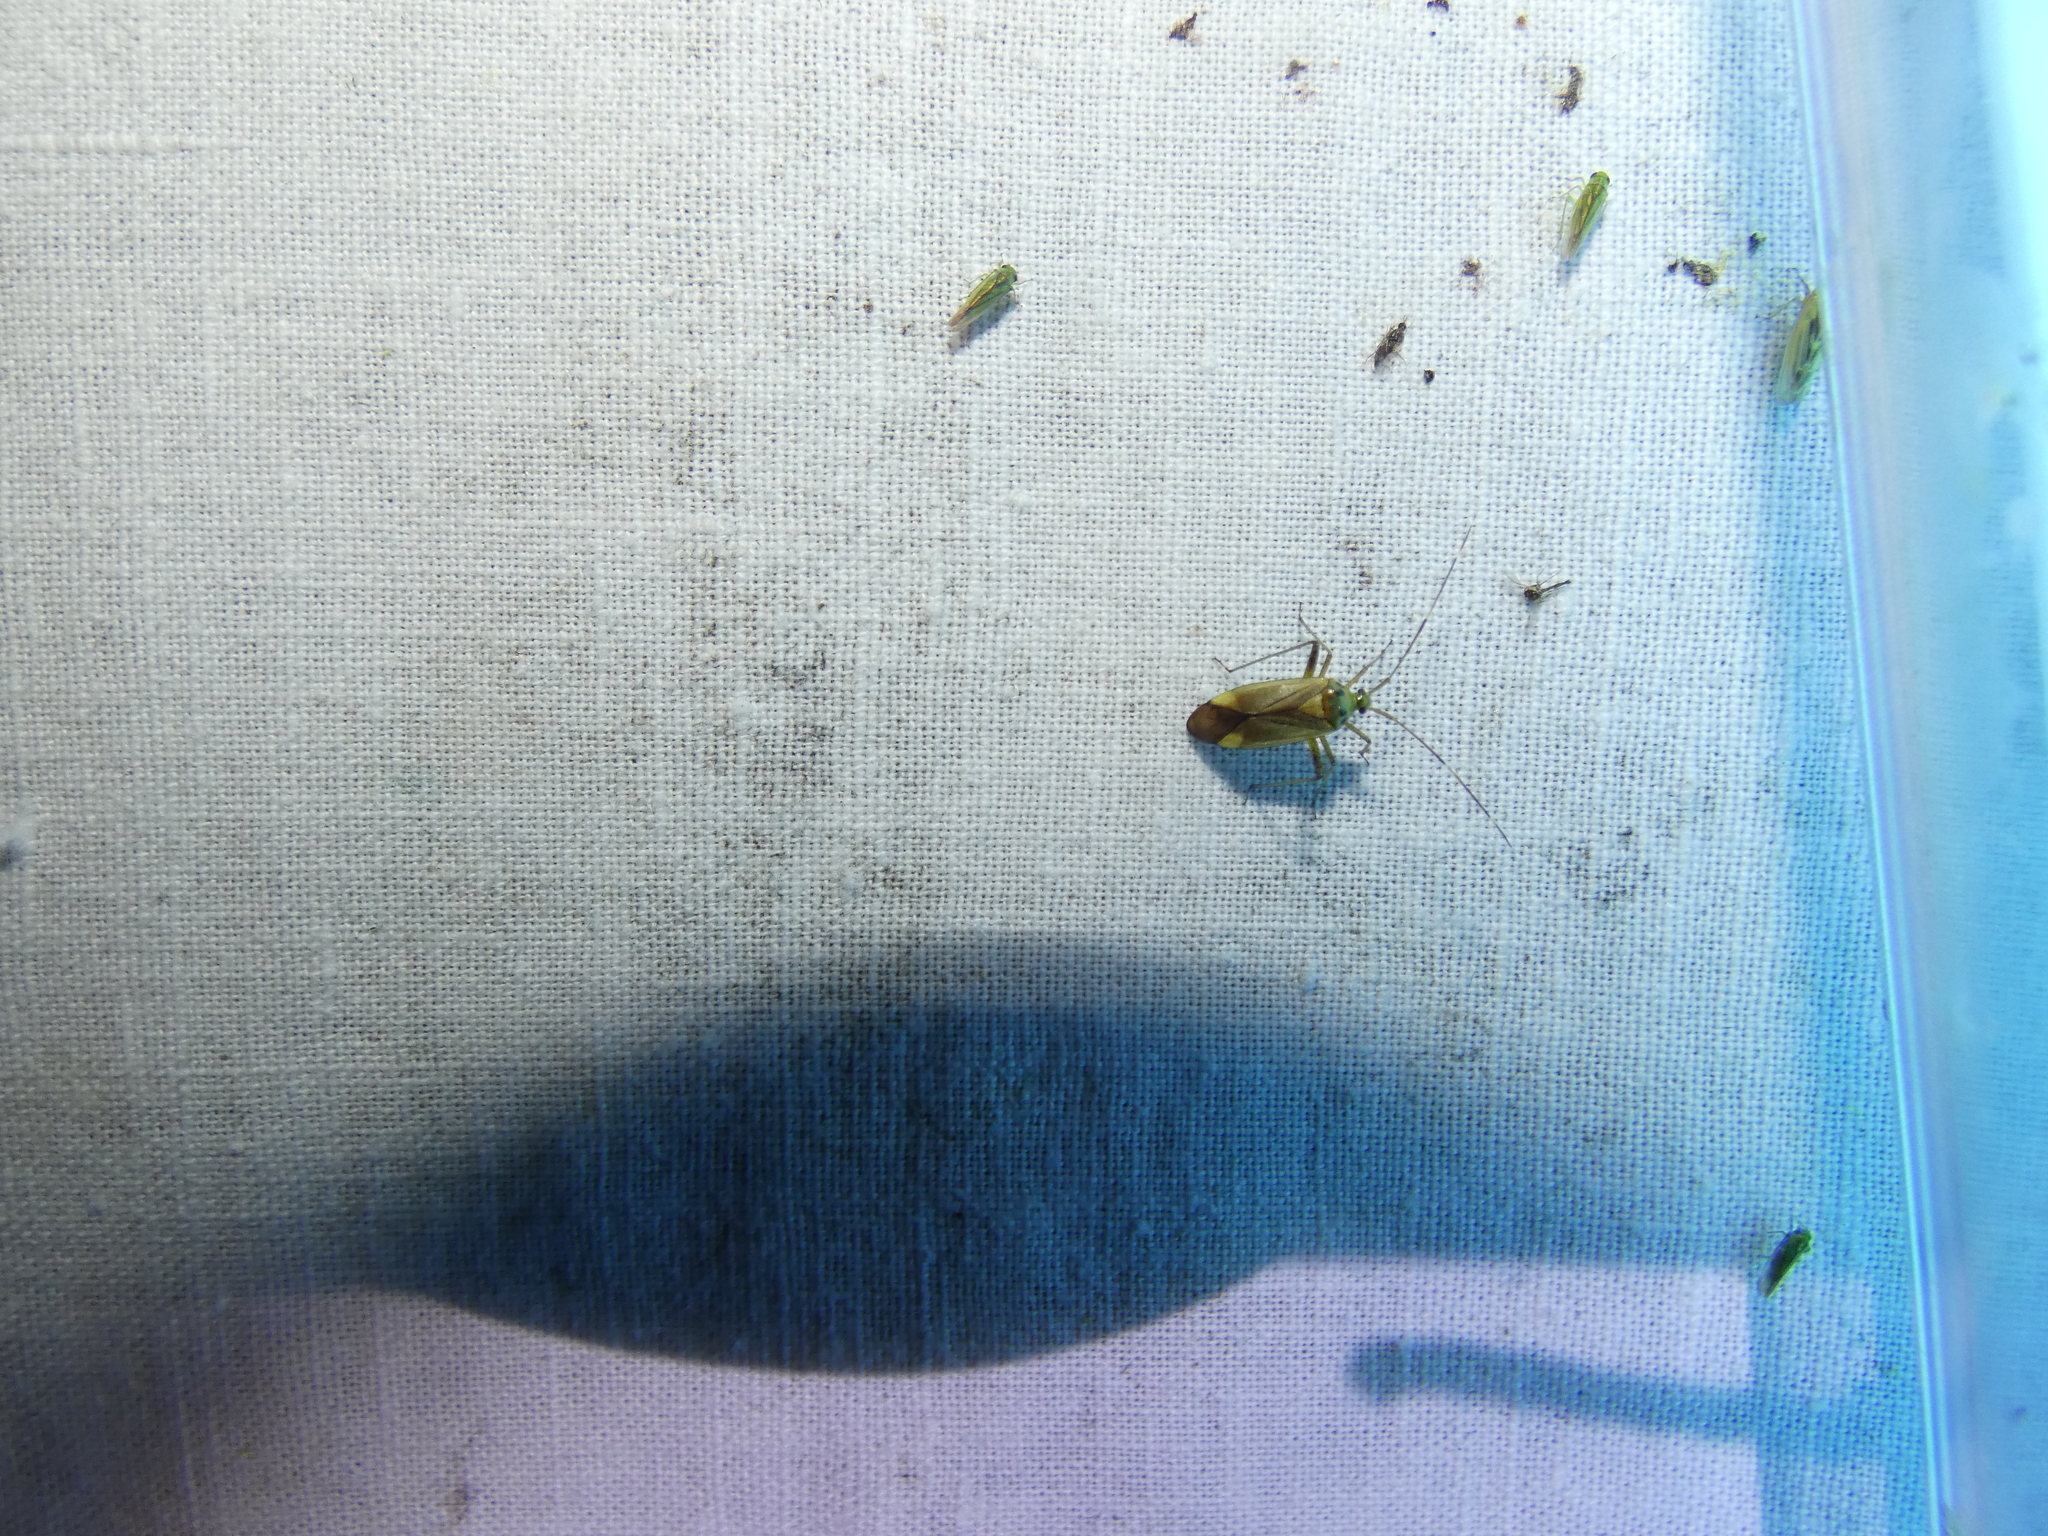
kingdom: Animalia
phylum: Arthropoda
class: Insecta
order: Hemiptera
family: Miridae
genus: Adelphocoris
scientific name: Adelphocoris quadripunctatus
